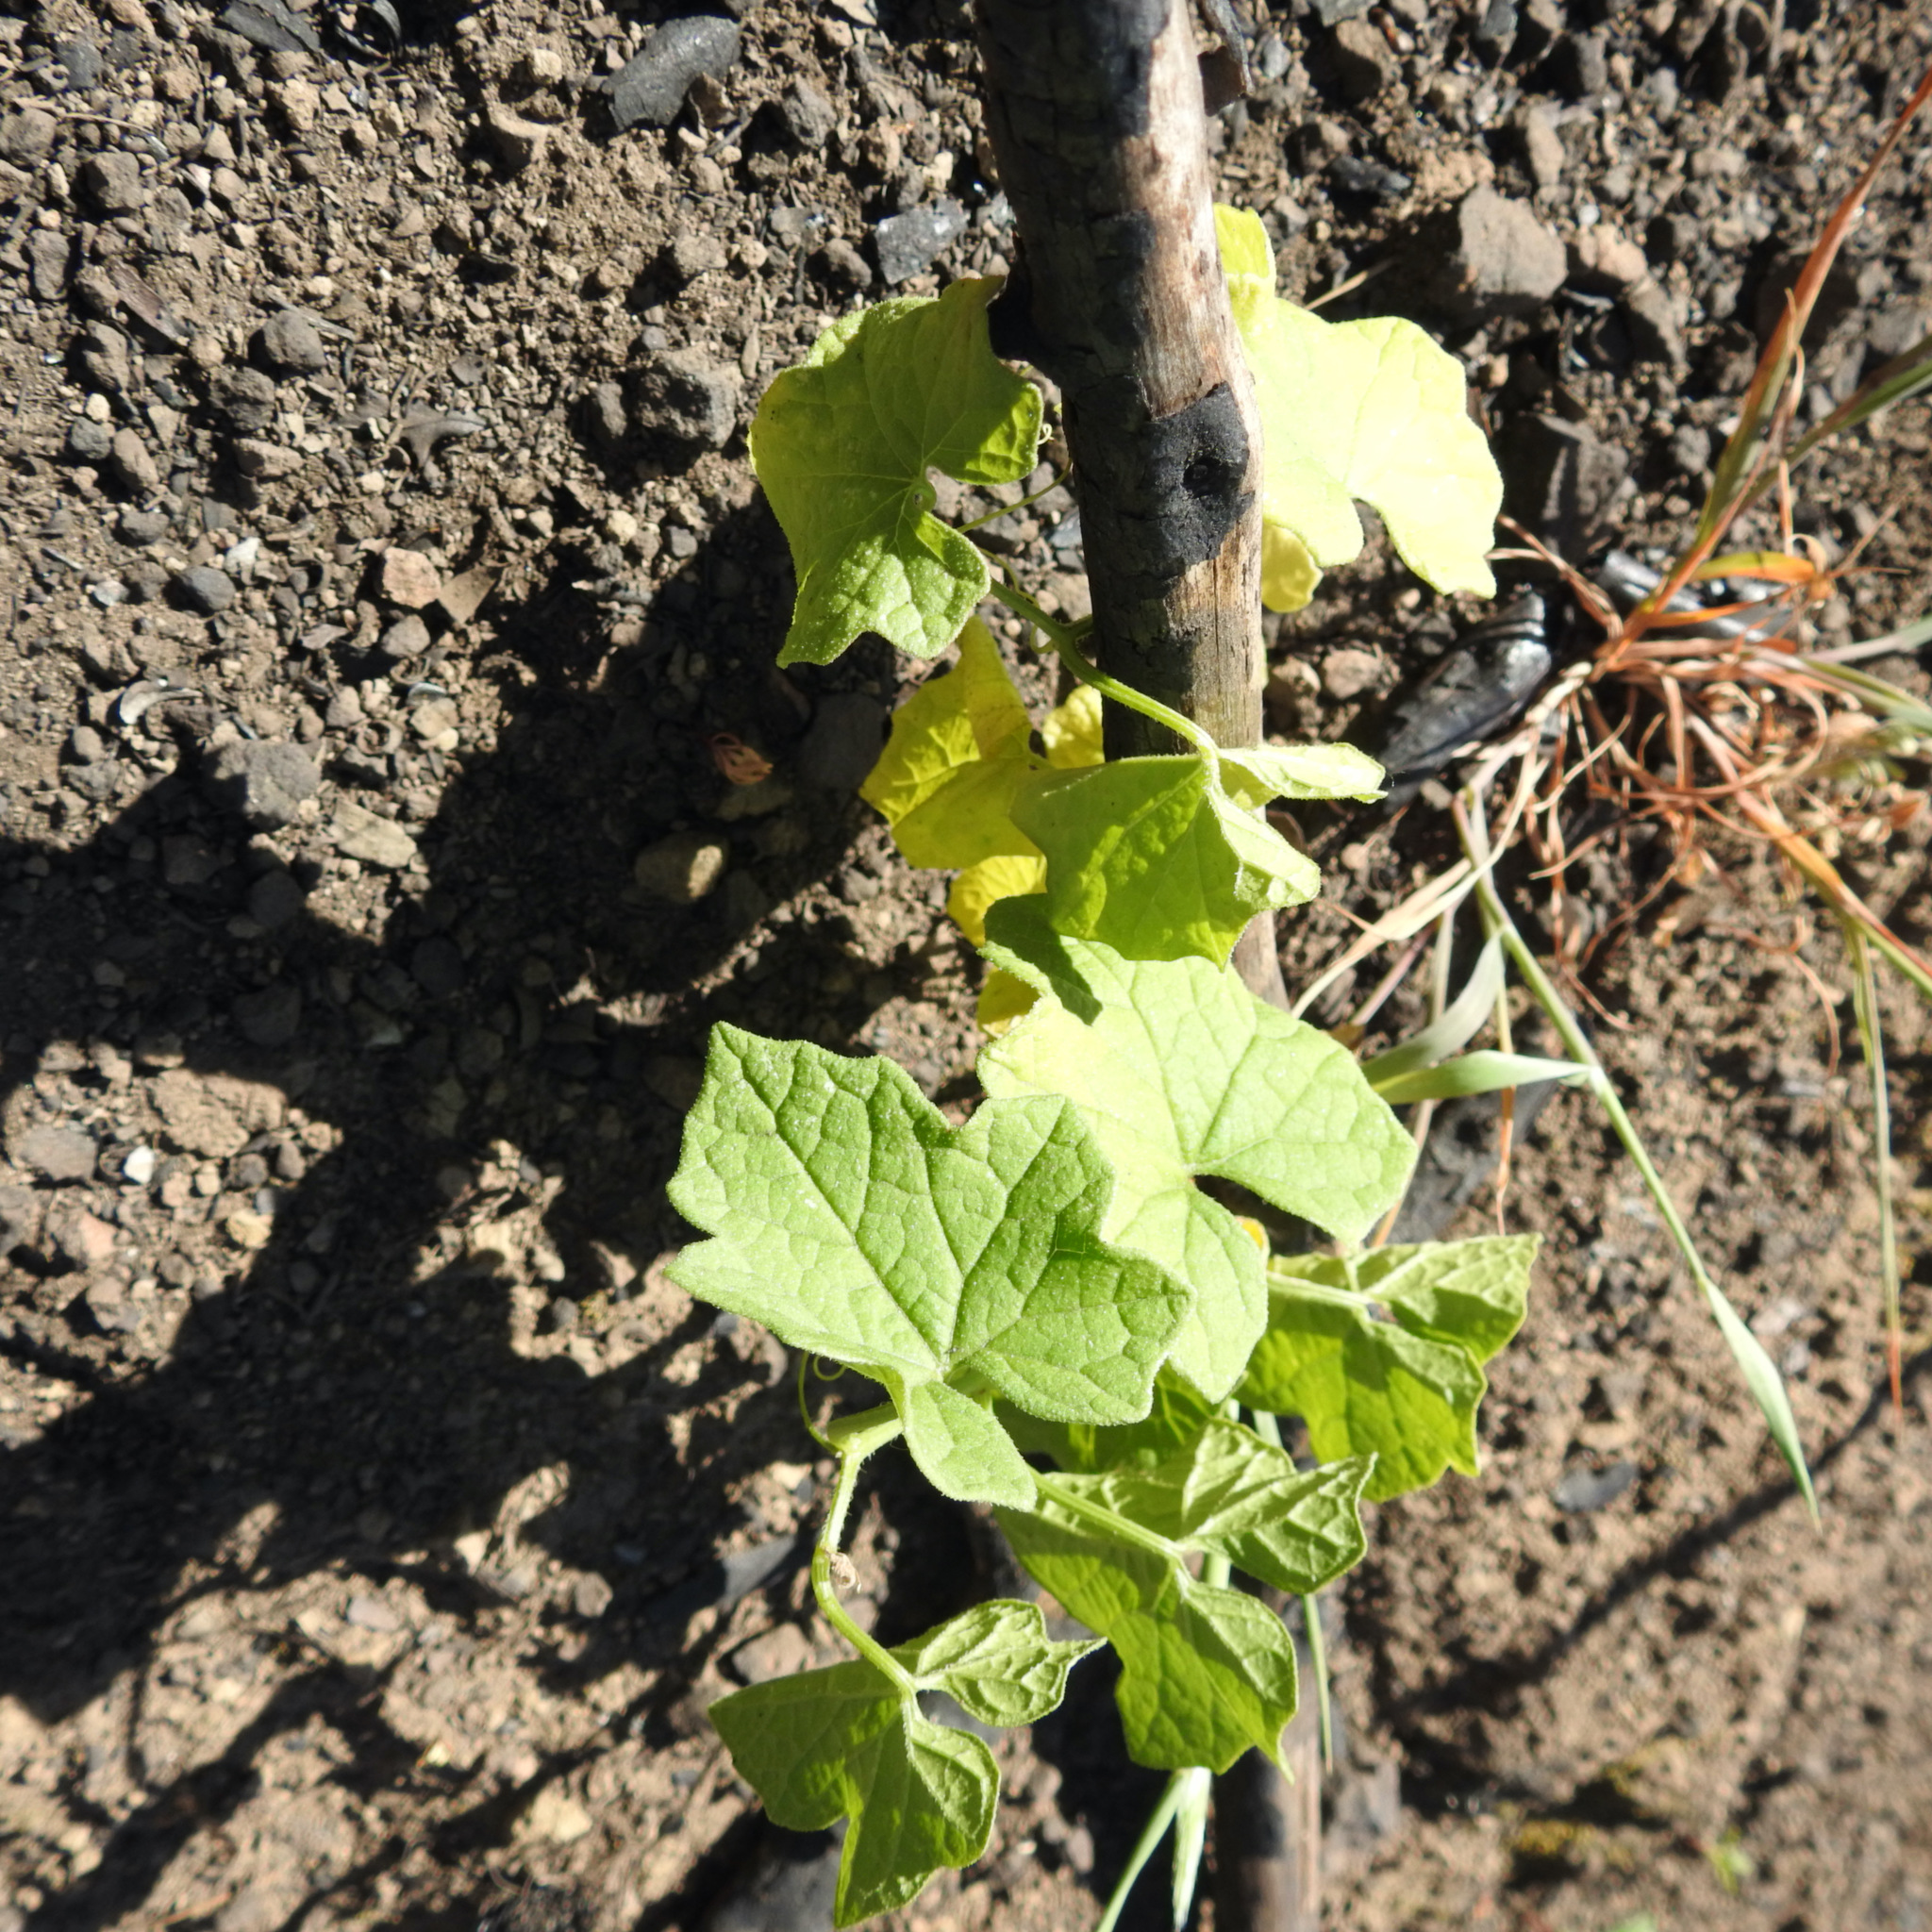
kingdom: Plantae
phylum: Tracheophyta
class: Magnoliopsida
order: Cucurbitales
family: Cucurbitaceae
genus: Marah
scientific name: Marah fabacea
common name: California manroot
